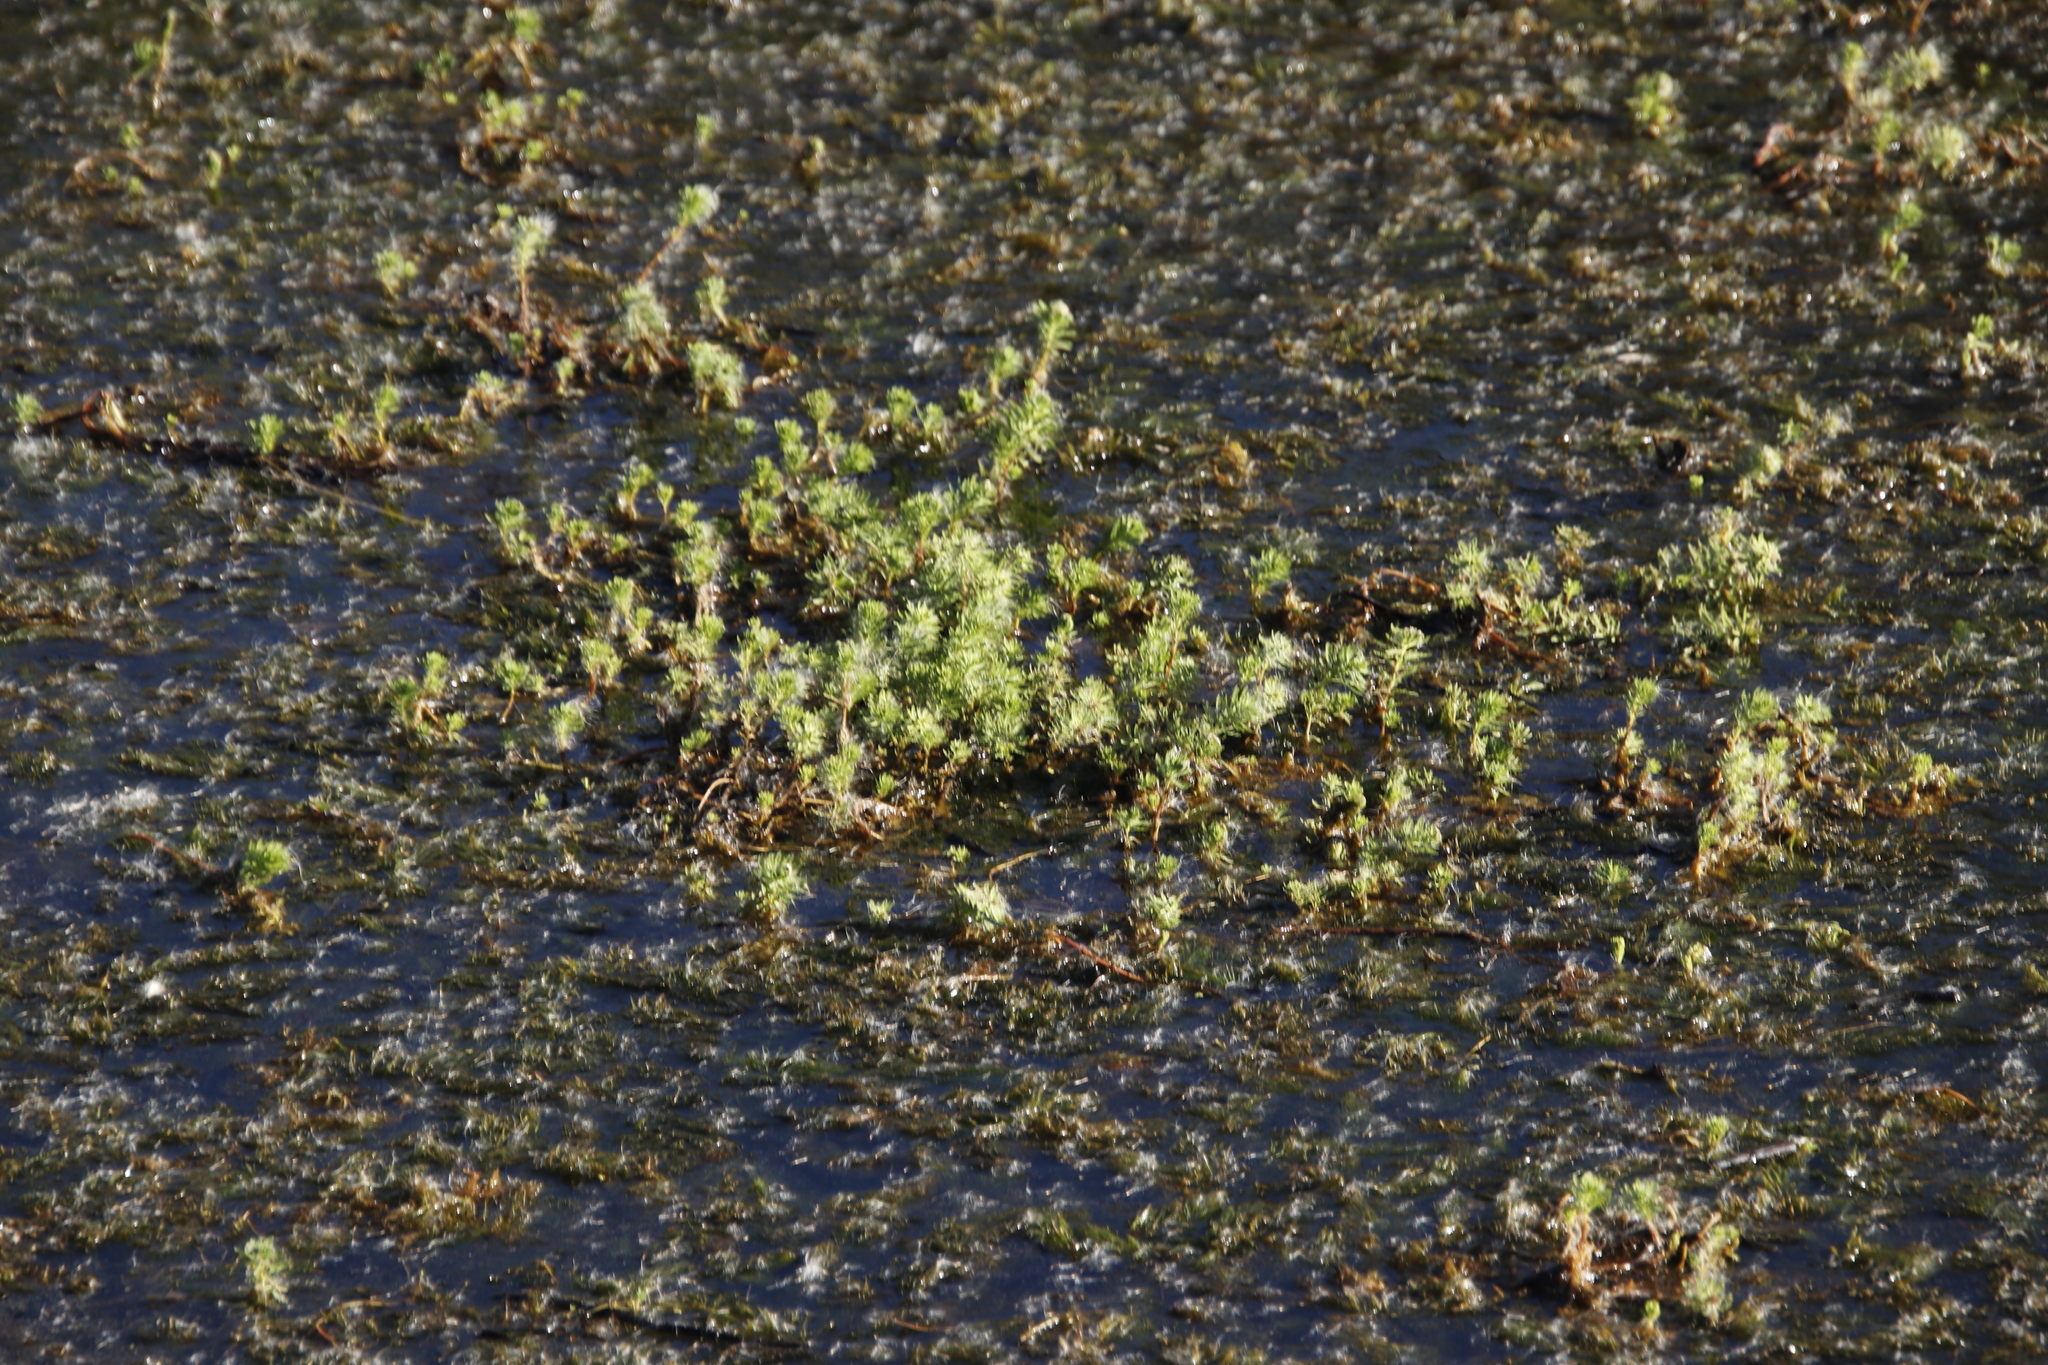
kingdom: Plantae
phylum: Tracheophyta
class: Magnoliopsida
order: Saxifragales
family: Haloragaceae
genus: Myriophyllum
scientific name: Myriophyllum aquaticum
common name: Parrot's feather
